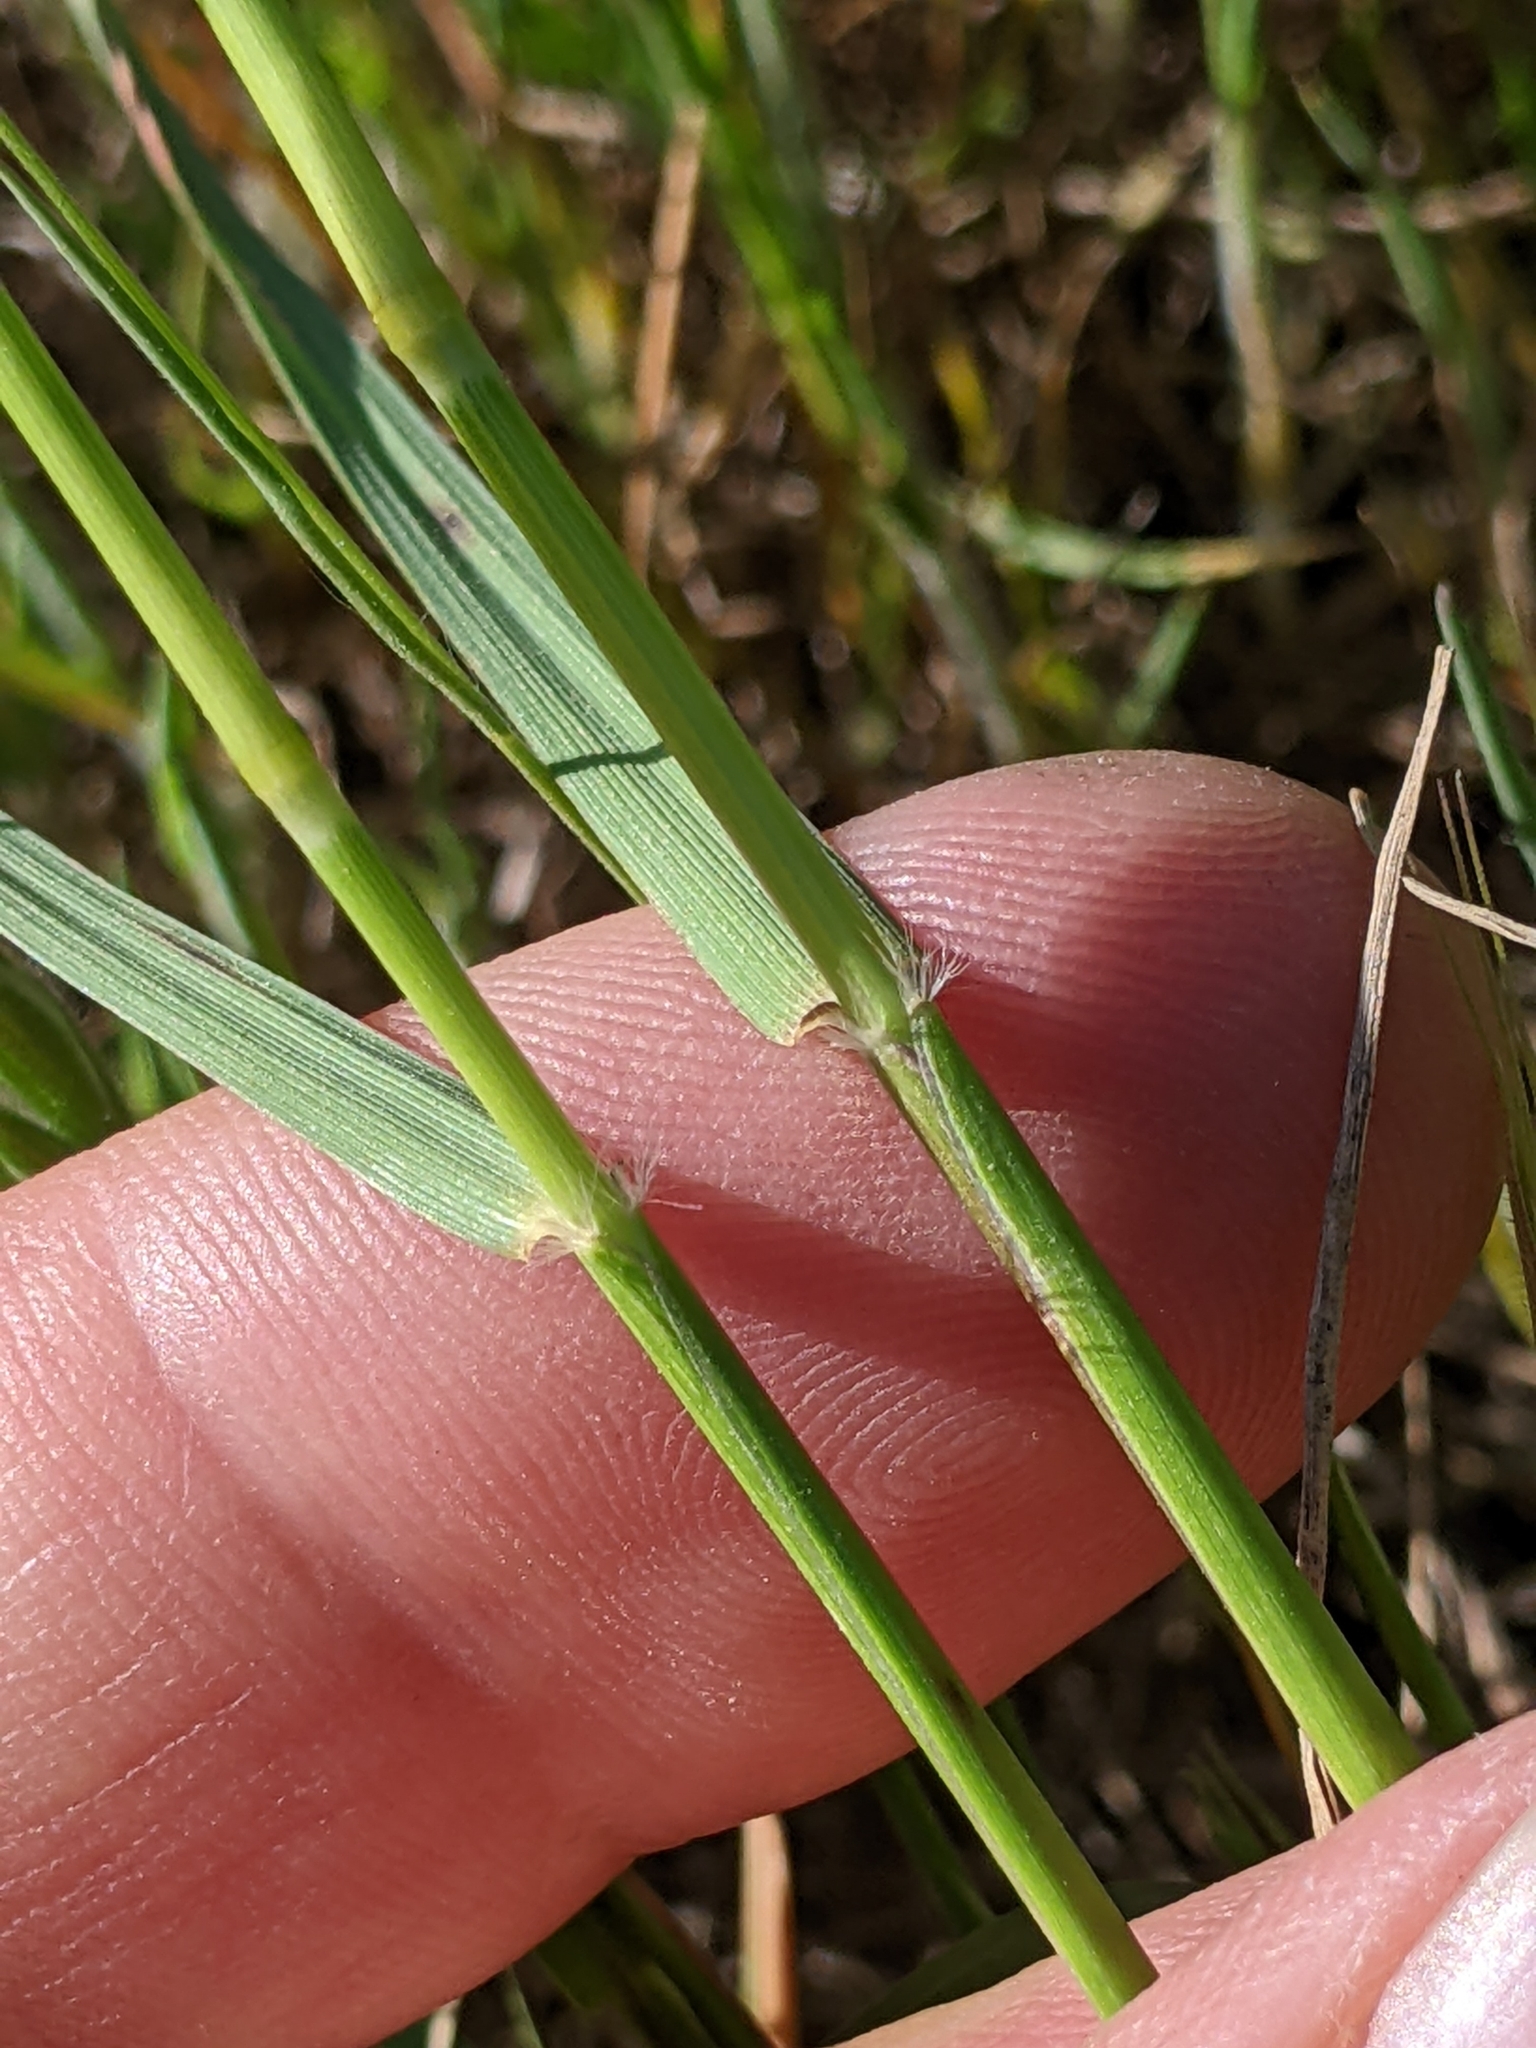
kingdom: Plantae
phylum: Tracheophyta
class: Liliopsida
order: Poales
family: Poaceae
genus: Danthonia
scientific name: Danthonia californica
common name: California oat grass
